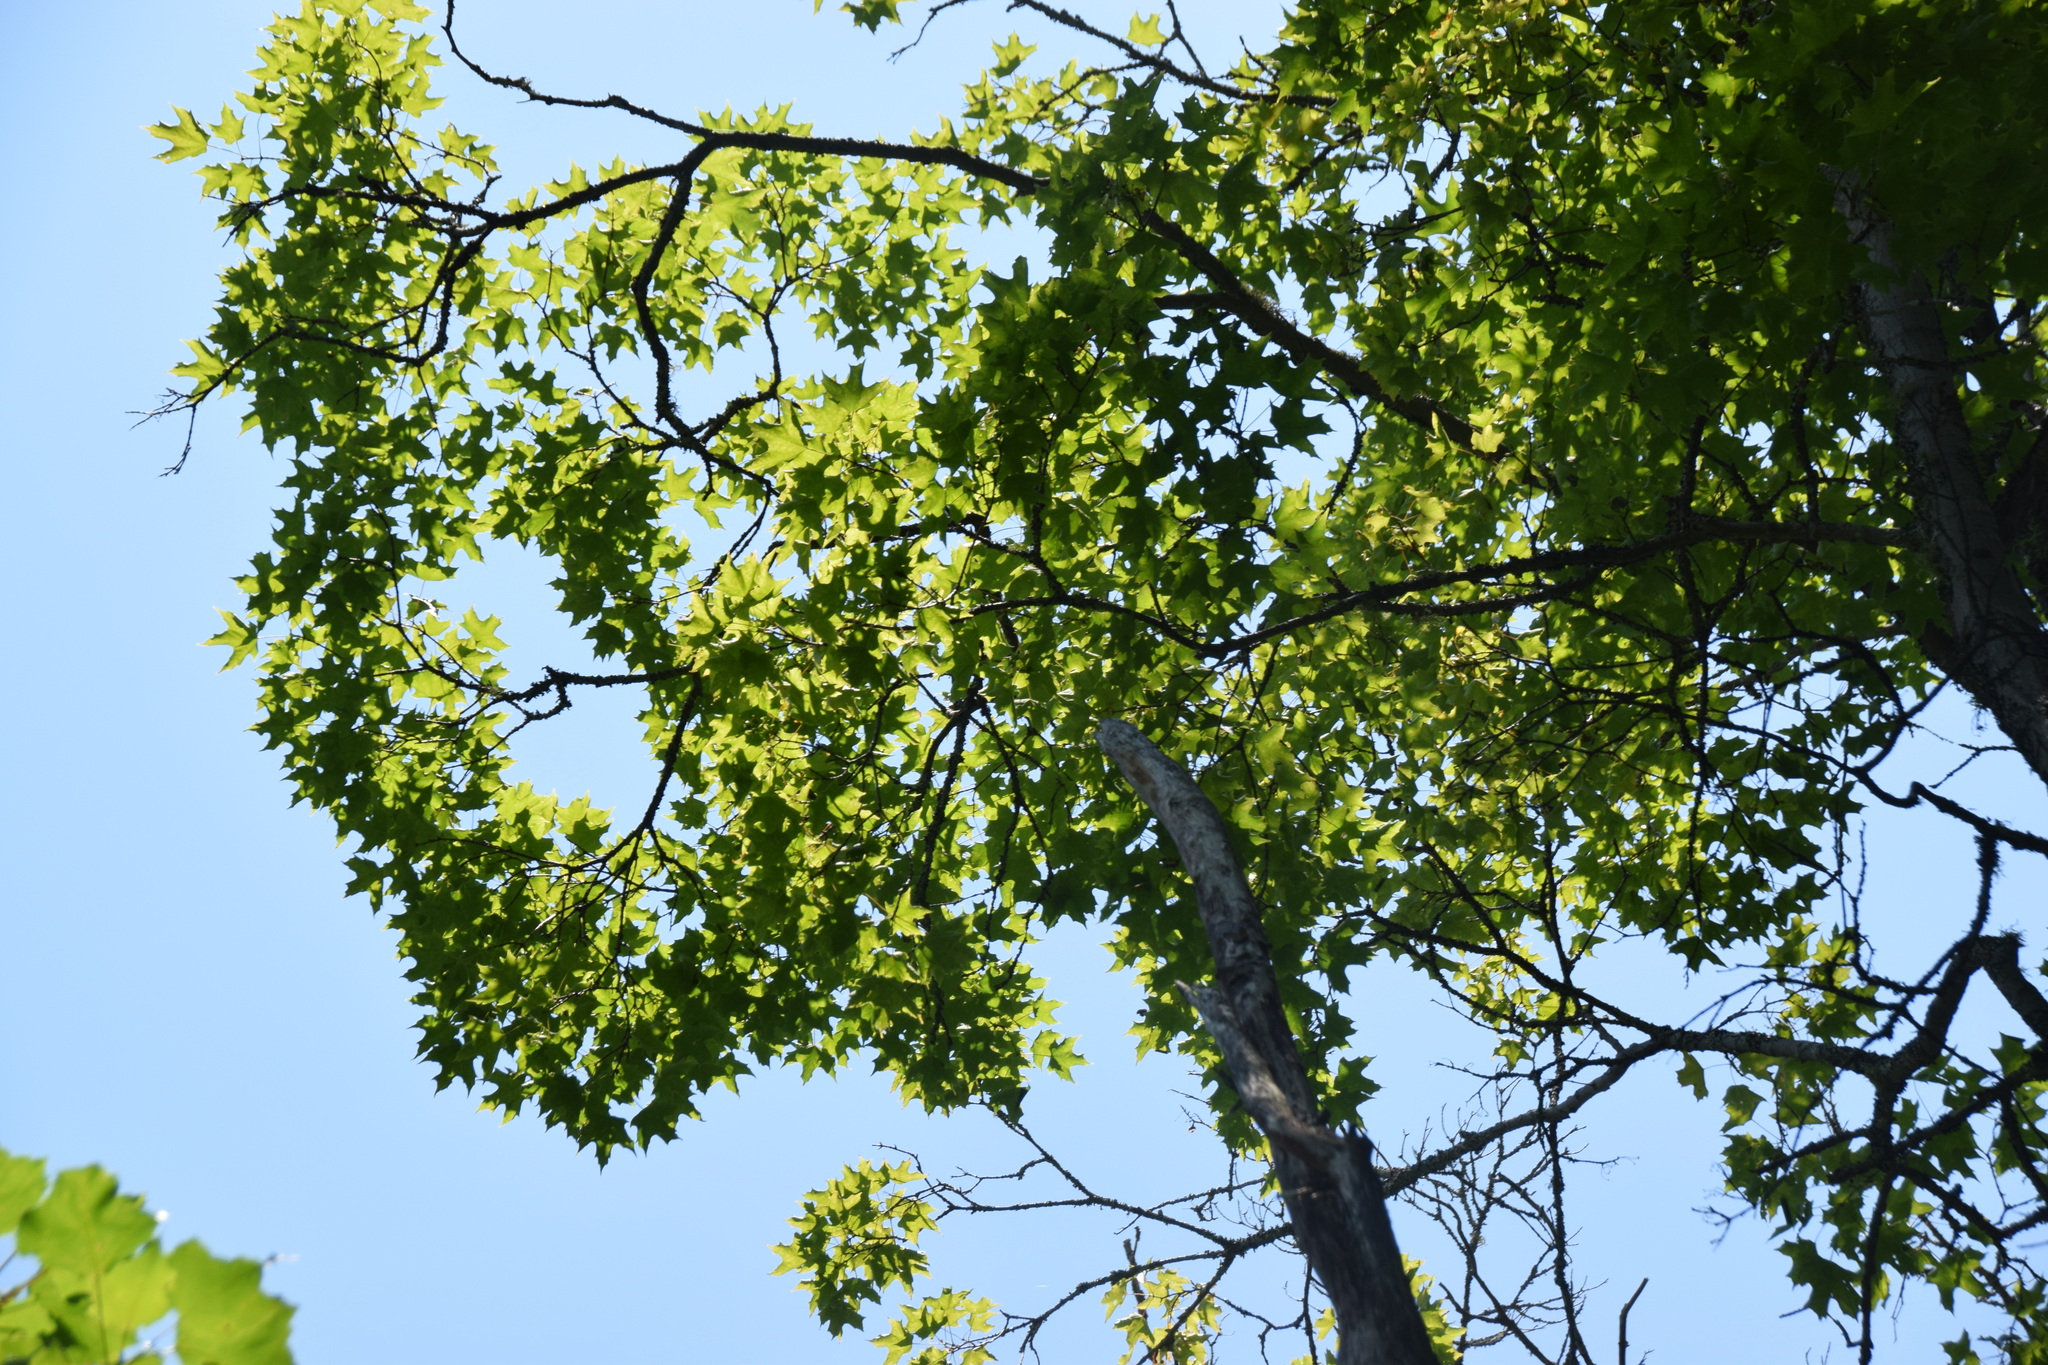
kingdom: Plantae
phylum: Tracheophyta
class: Magnoliopsida
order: Sapindales
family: Sapindaceae
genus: Acer
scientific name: Acer saccharum
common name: Sugar maple
